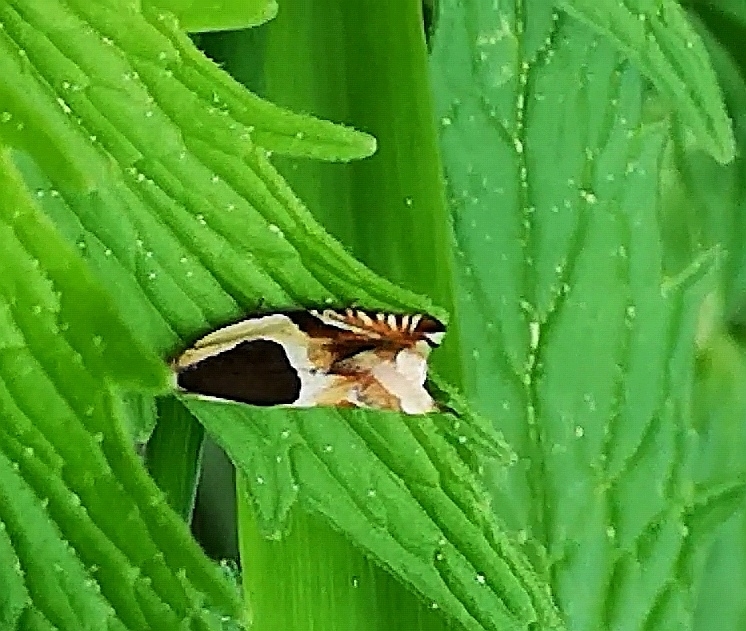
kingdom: Animalia
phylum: Arthropoda
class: Insecta
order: Lepidoptera
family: Tortricidae
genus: Ancylis
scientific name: Ancylis badiana
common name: Common roller
